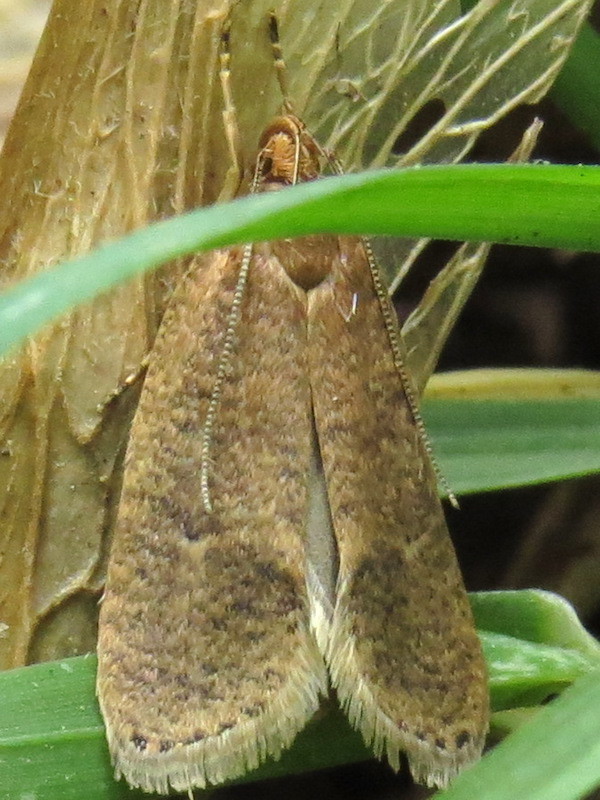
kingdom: Animalia
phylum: Arthropoda
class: Insecta
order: Lepidoptera
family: Depressariidae
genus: Psilocorsis
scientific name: Psilocorsis reflexella
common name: Dotted leaftier moth
